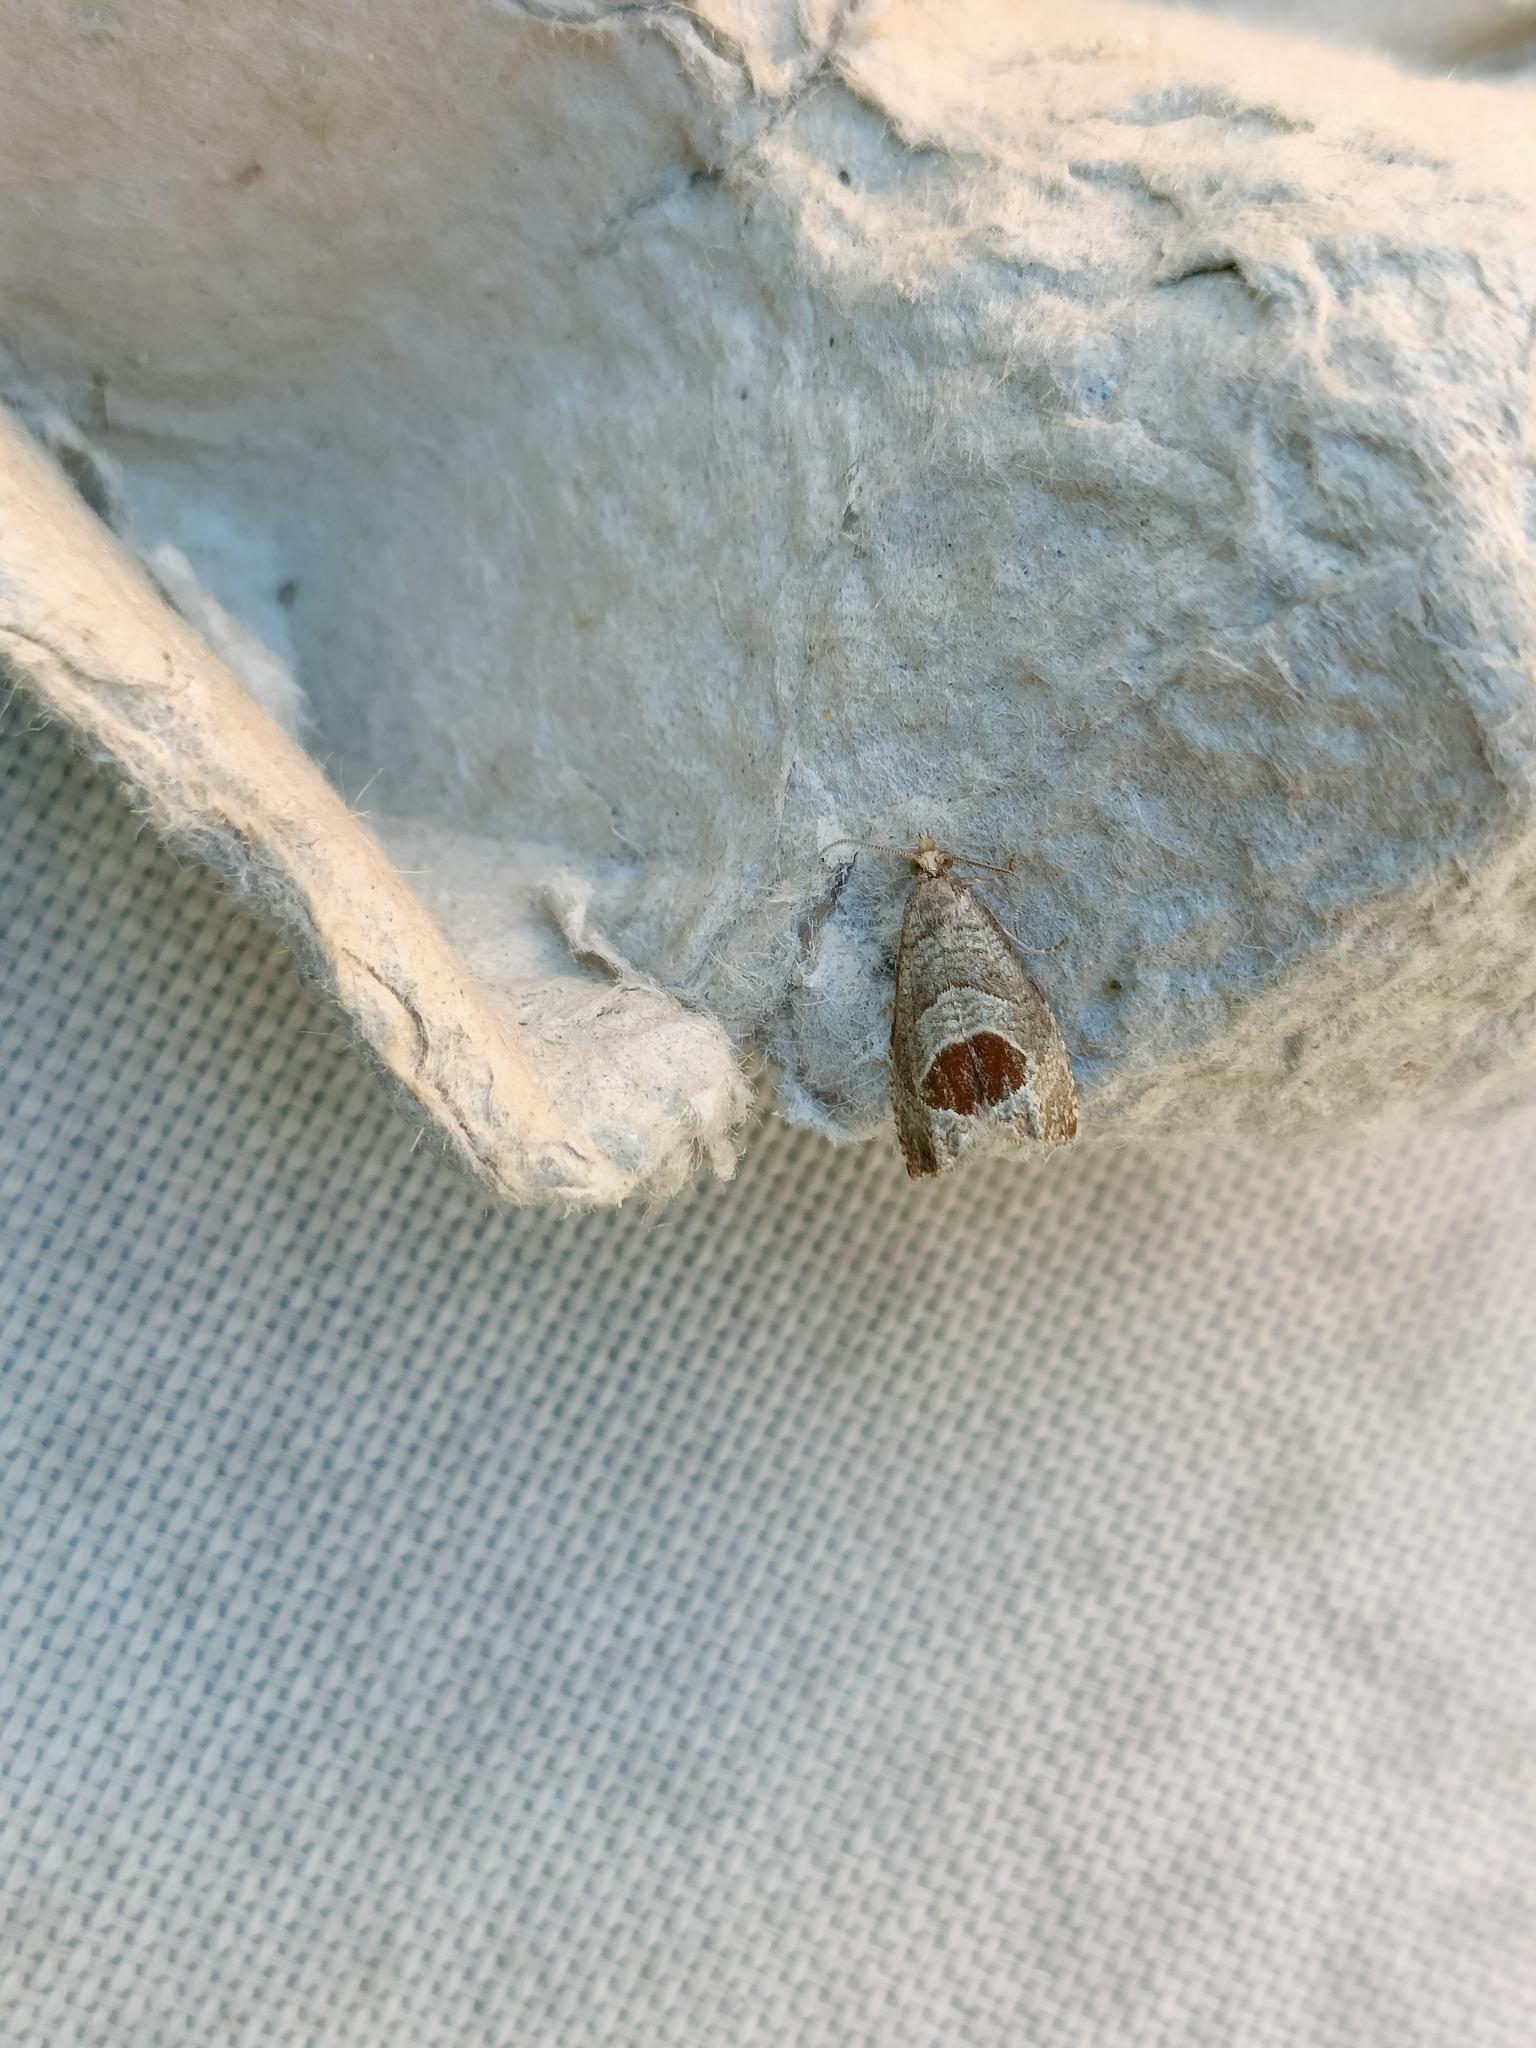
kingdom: Animalia
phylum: Arthropoda
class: Insecta
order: Lepidoptera
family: Tortricidae
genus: Notocelia
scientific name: Notocelia uddmanniana
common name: Bramble shoot moth
